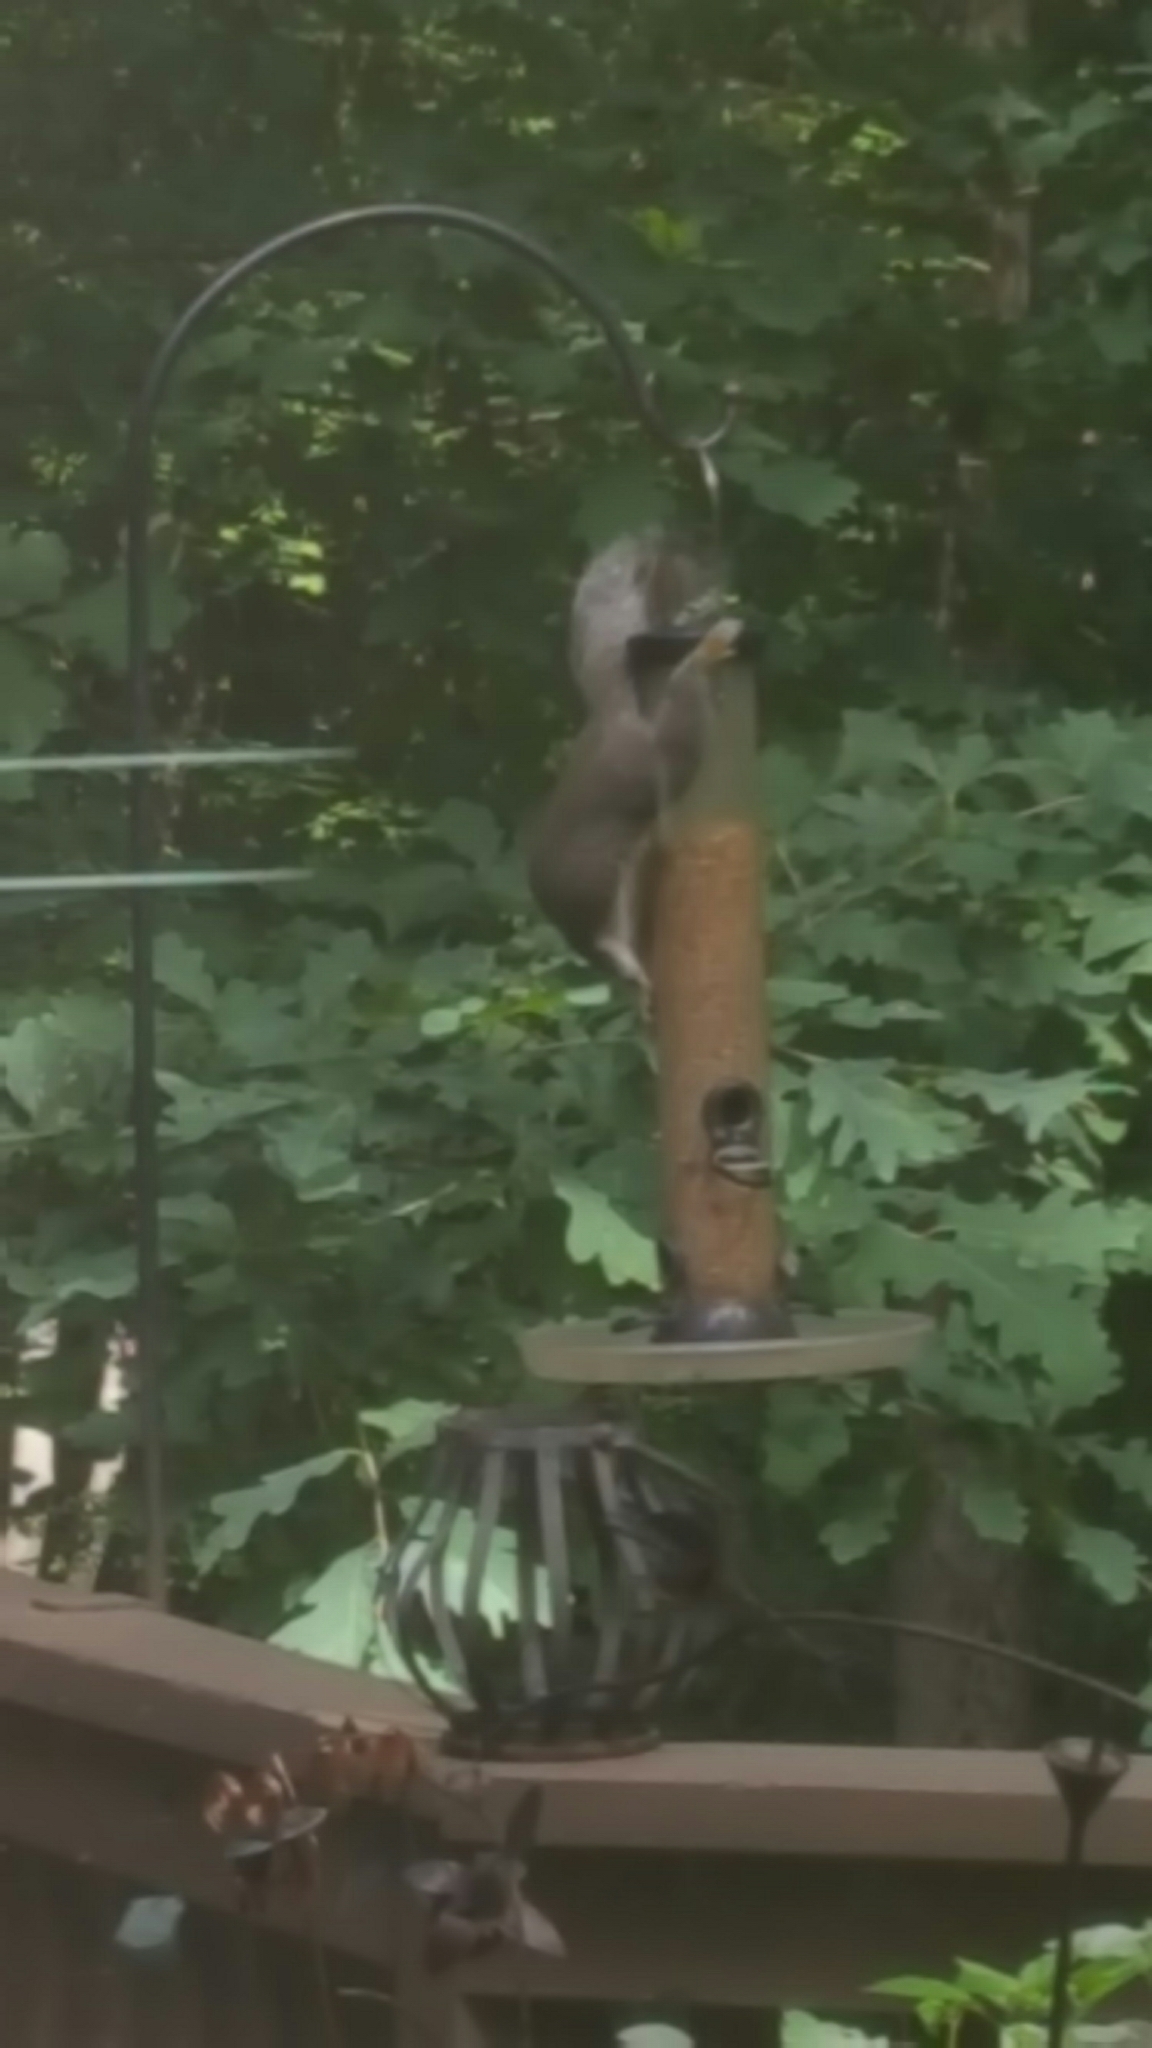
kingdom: Animalia
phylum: Chordata
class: Mammalia
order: Rodentia
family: Sciuridae
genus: Sciurus
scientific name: Sciurus carolinensis
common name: Eastern gray squirrel
